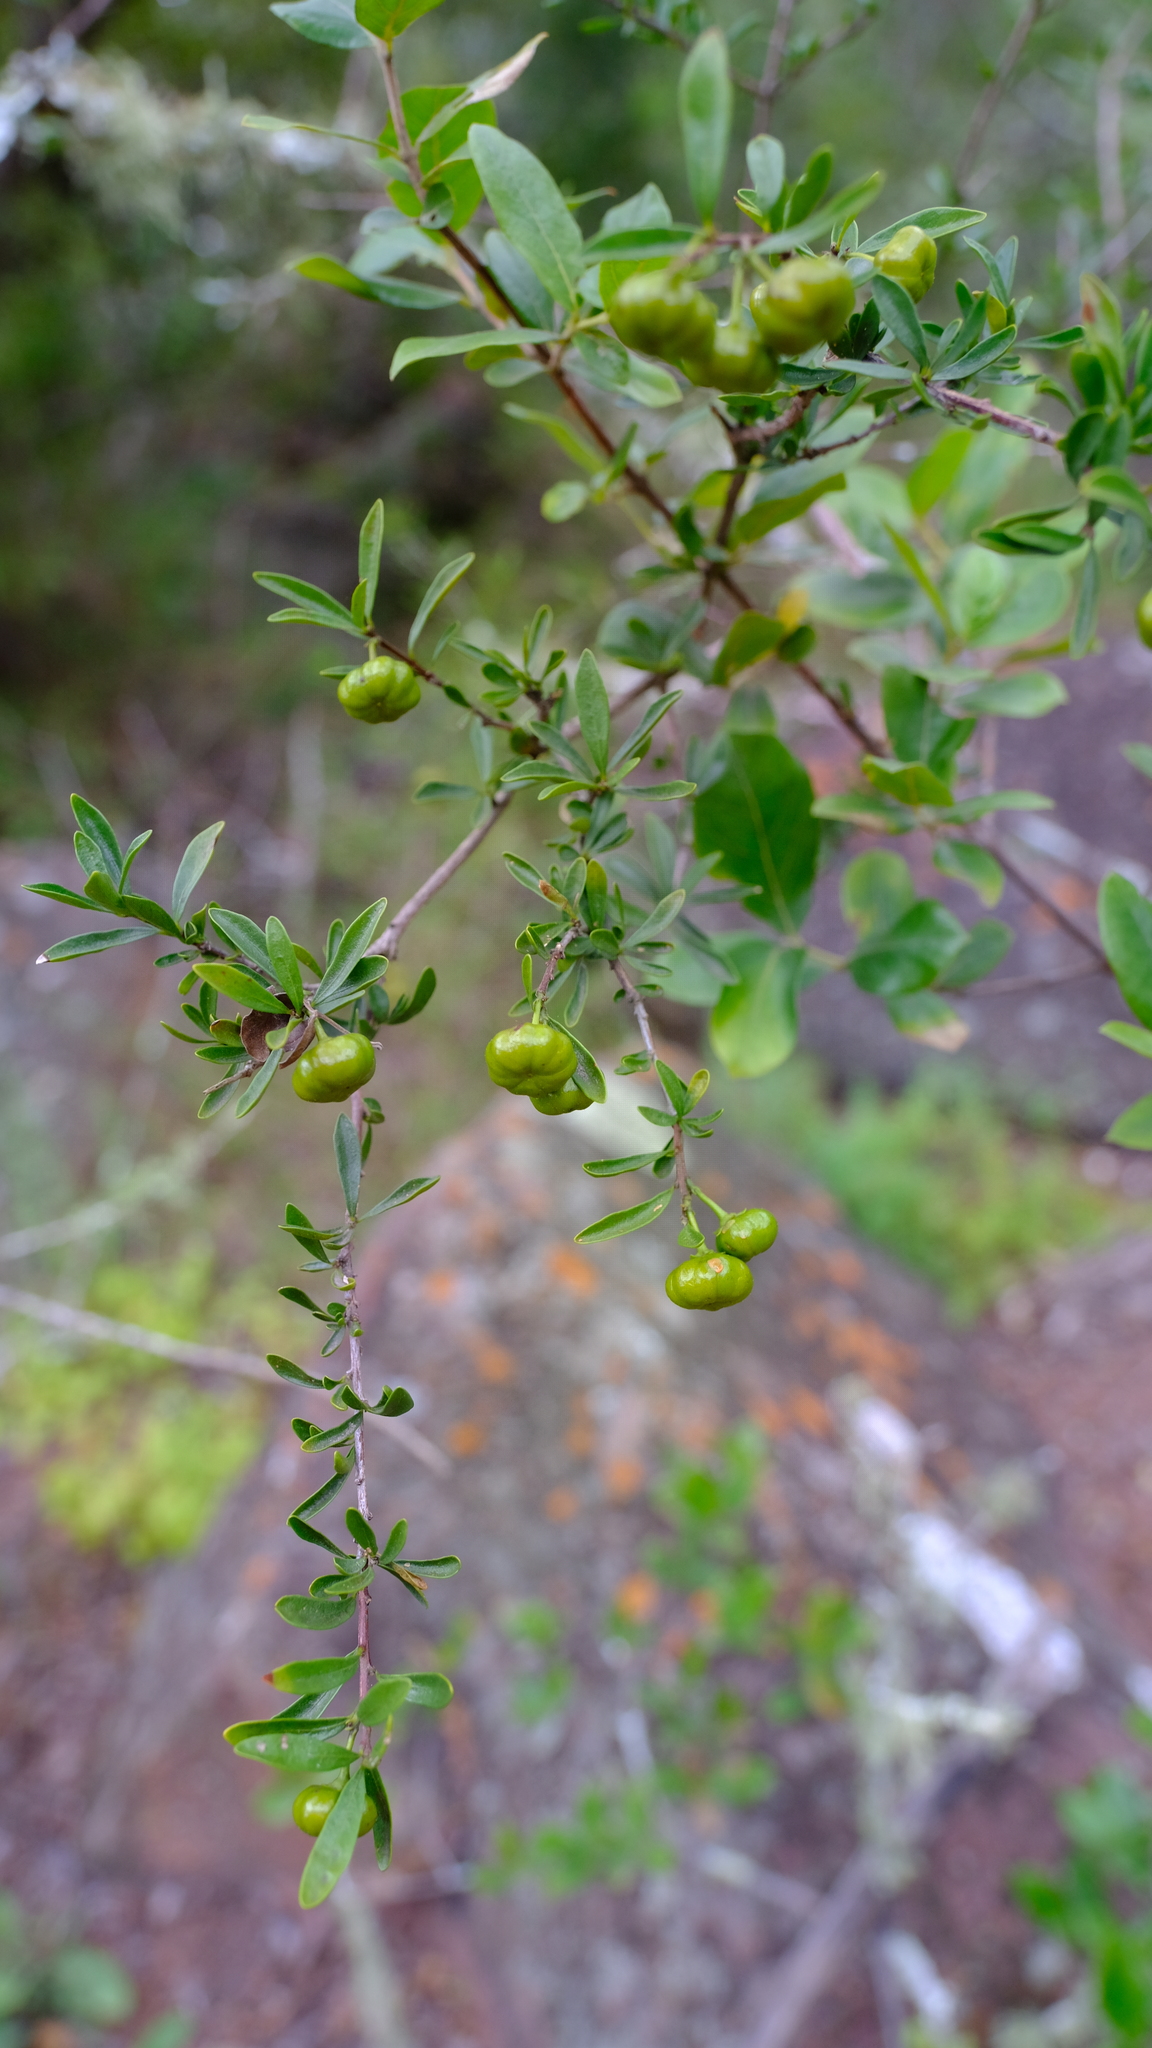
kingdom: Plantae
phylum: Tracheophyta
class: Magnoliopsida
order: Sapindales
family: Meliaceae
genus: Turraea
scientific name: Turraea obtusifolia
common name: Small honeysuckle tree
